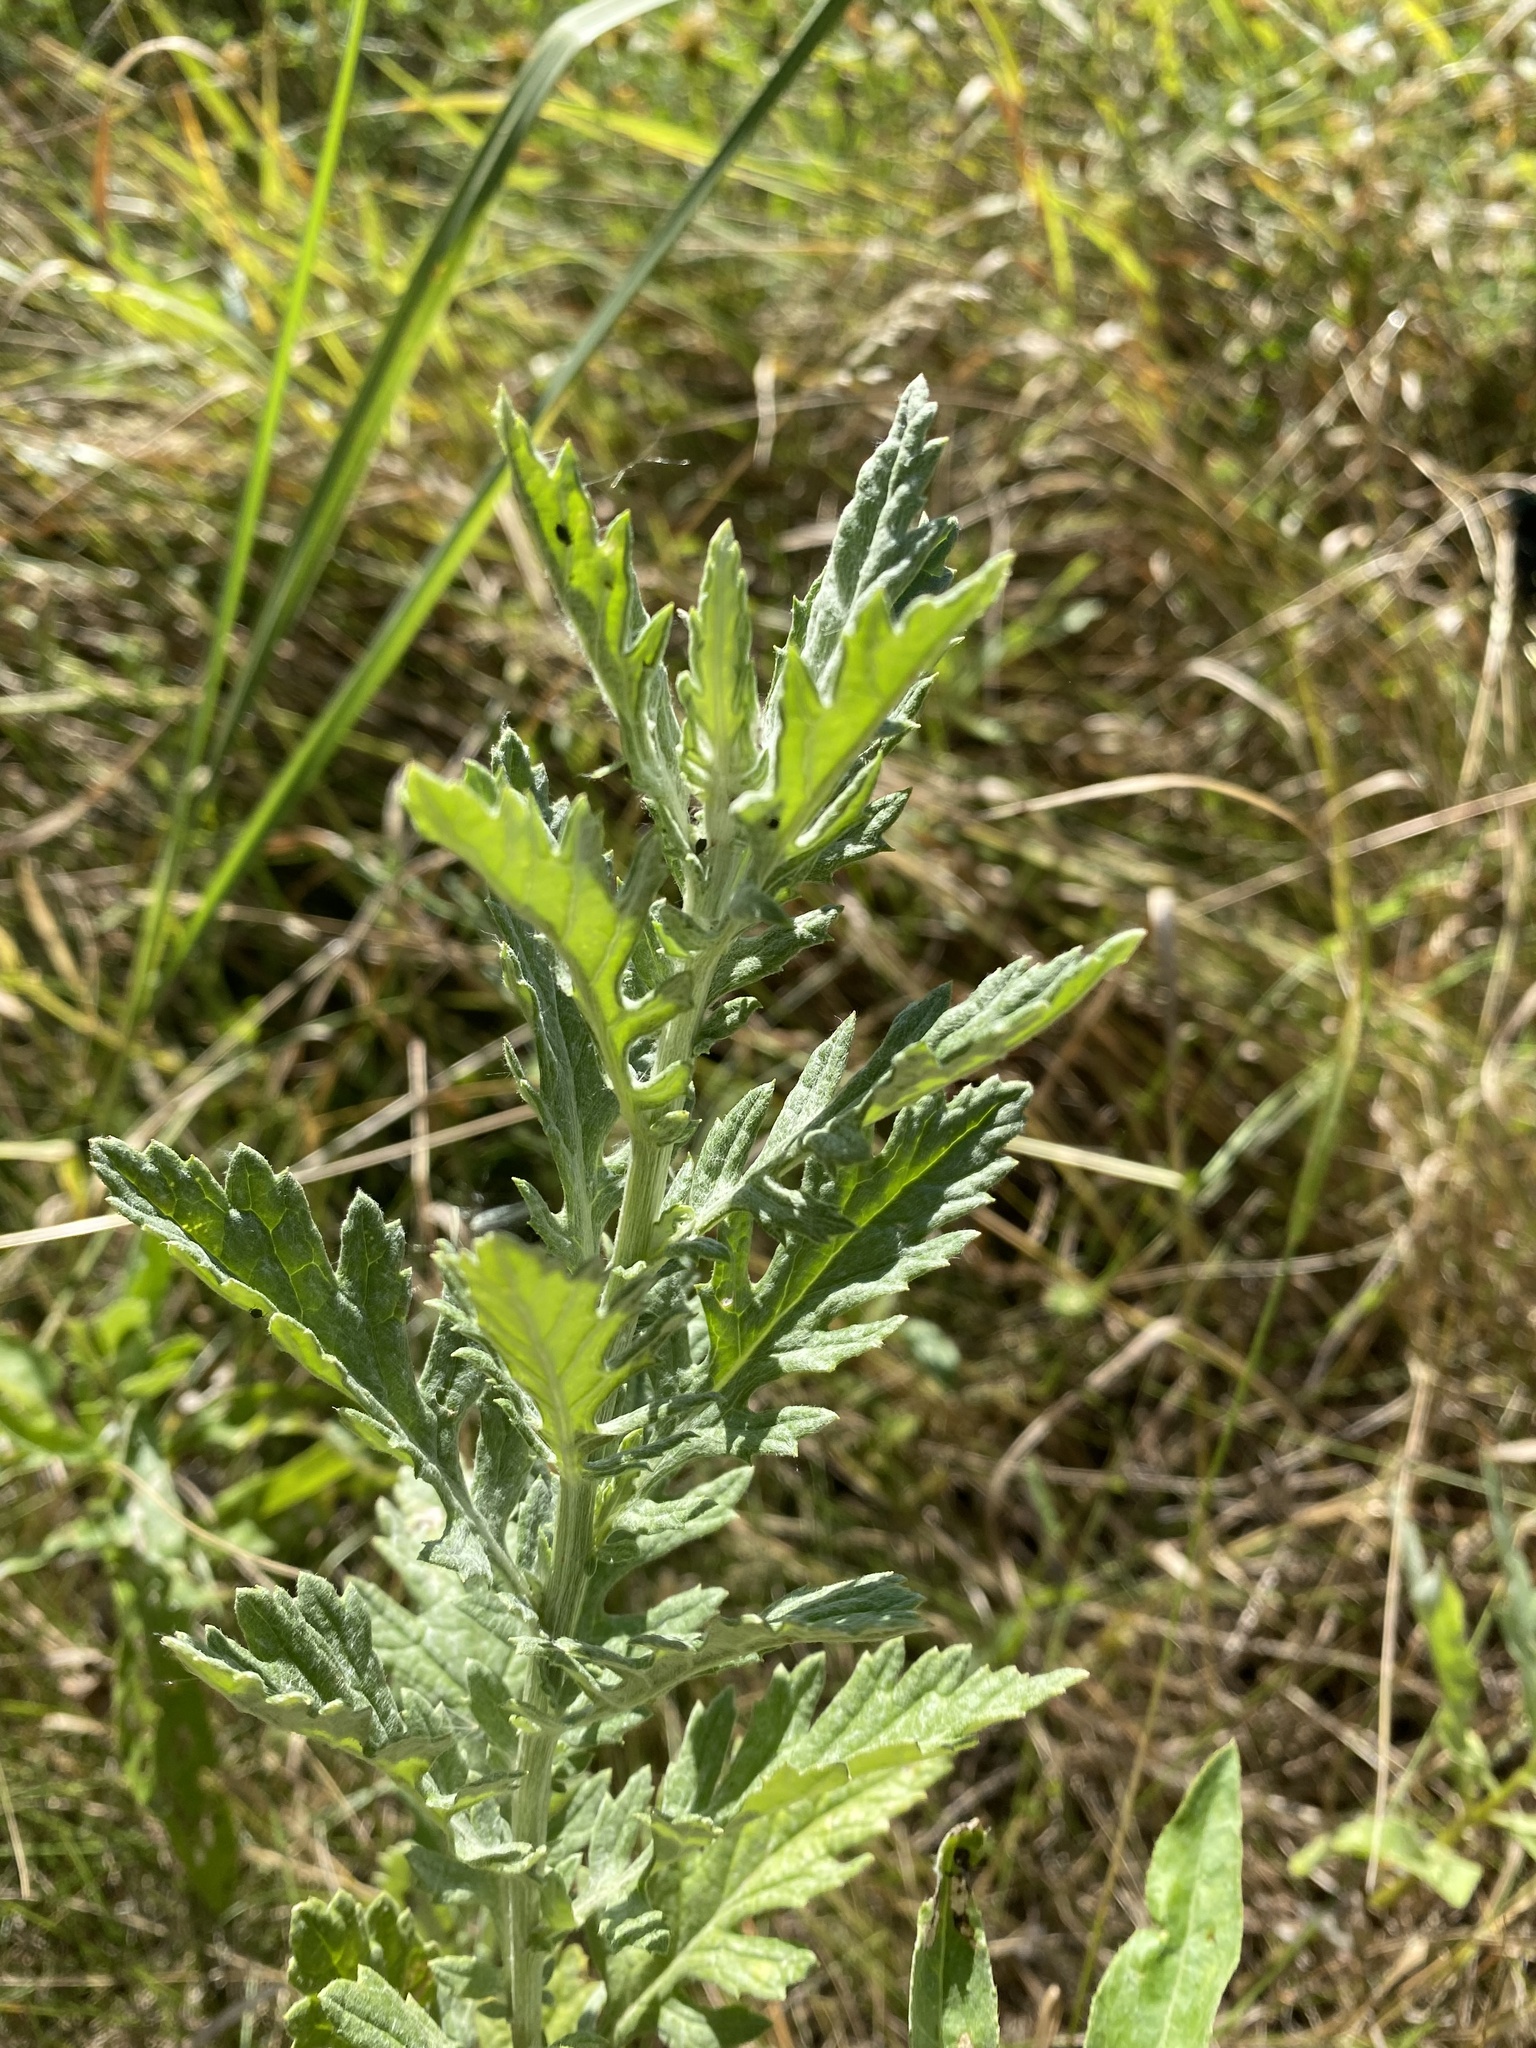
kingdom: Plantae
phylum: Tracheophyta
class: Magnoliopsida
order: Asterales
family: Asteraceae
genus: Jacobaea
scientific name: Jacobaea erucifolia
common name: Hoary ragwort
